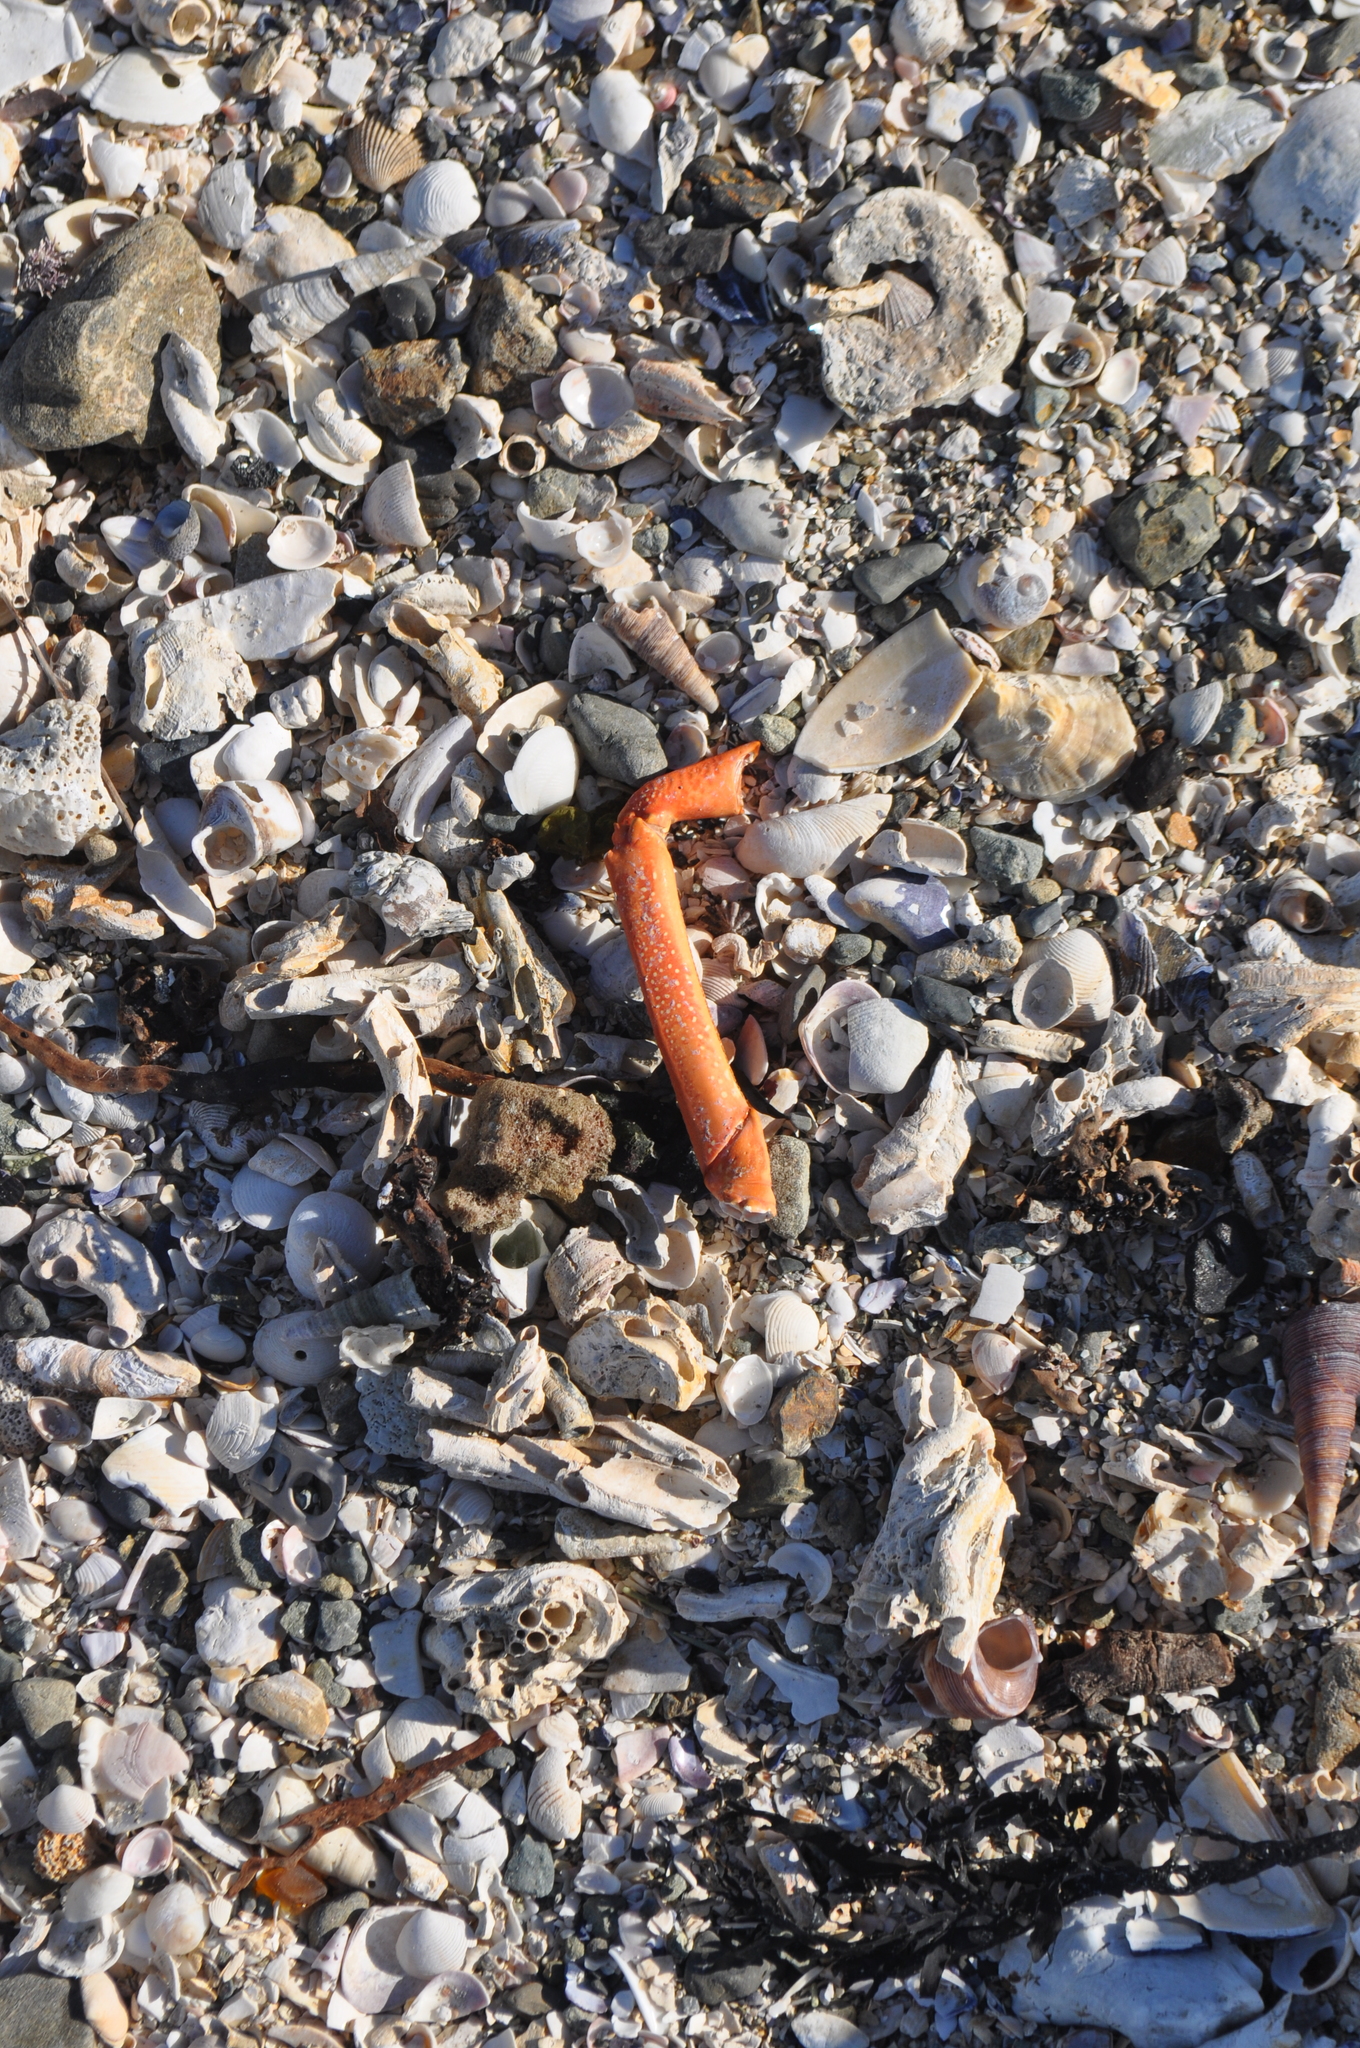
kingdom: Animalia
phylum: Arthropoda
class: Malacostraca
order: Decapoda
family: Palinuridae
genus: Jasus
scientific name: Jasus edwardsii
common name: Red rock lobster
